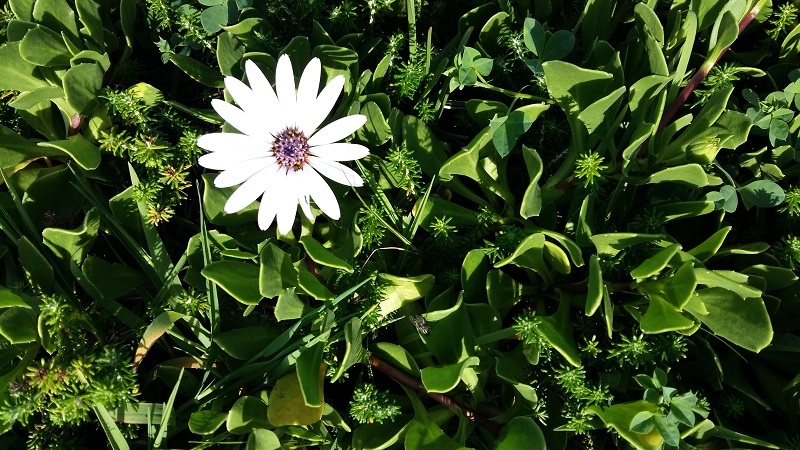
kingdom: Plantae
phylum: Tracheophyta
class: Magnoliopsida
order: Asterales
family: Asteraceae
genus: Dimorphotheca
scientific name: Dimorphotheca fruticosa
